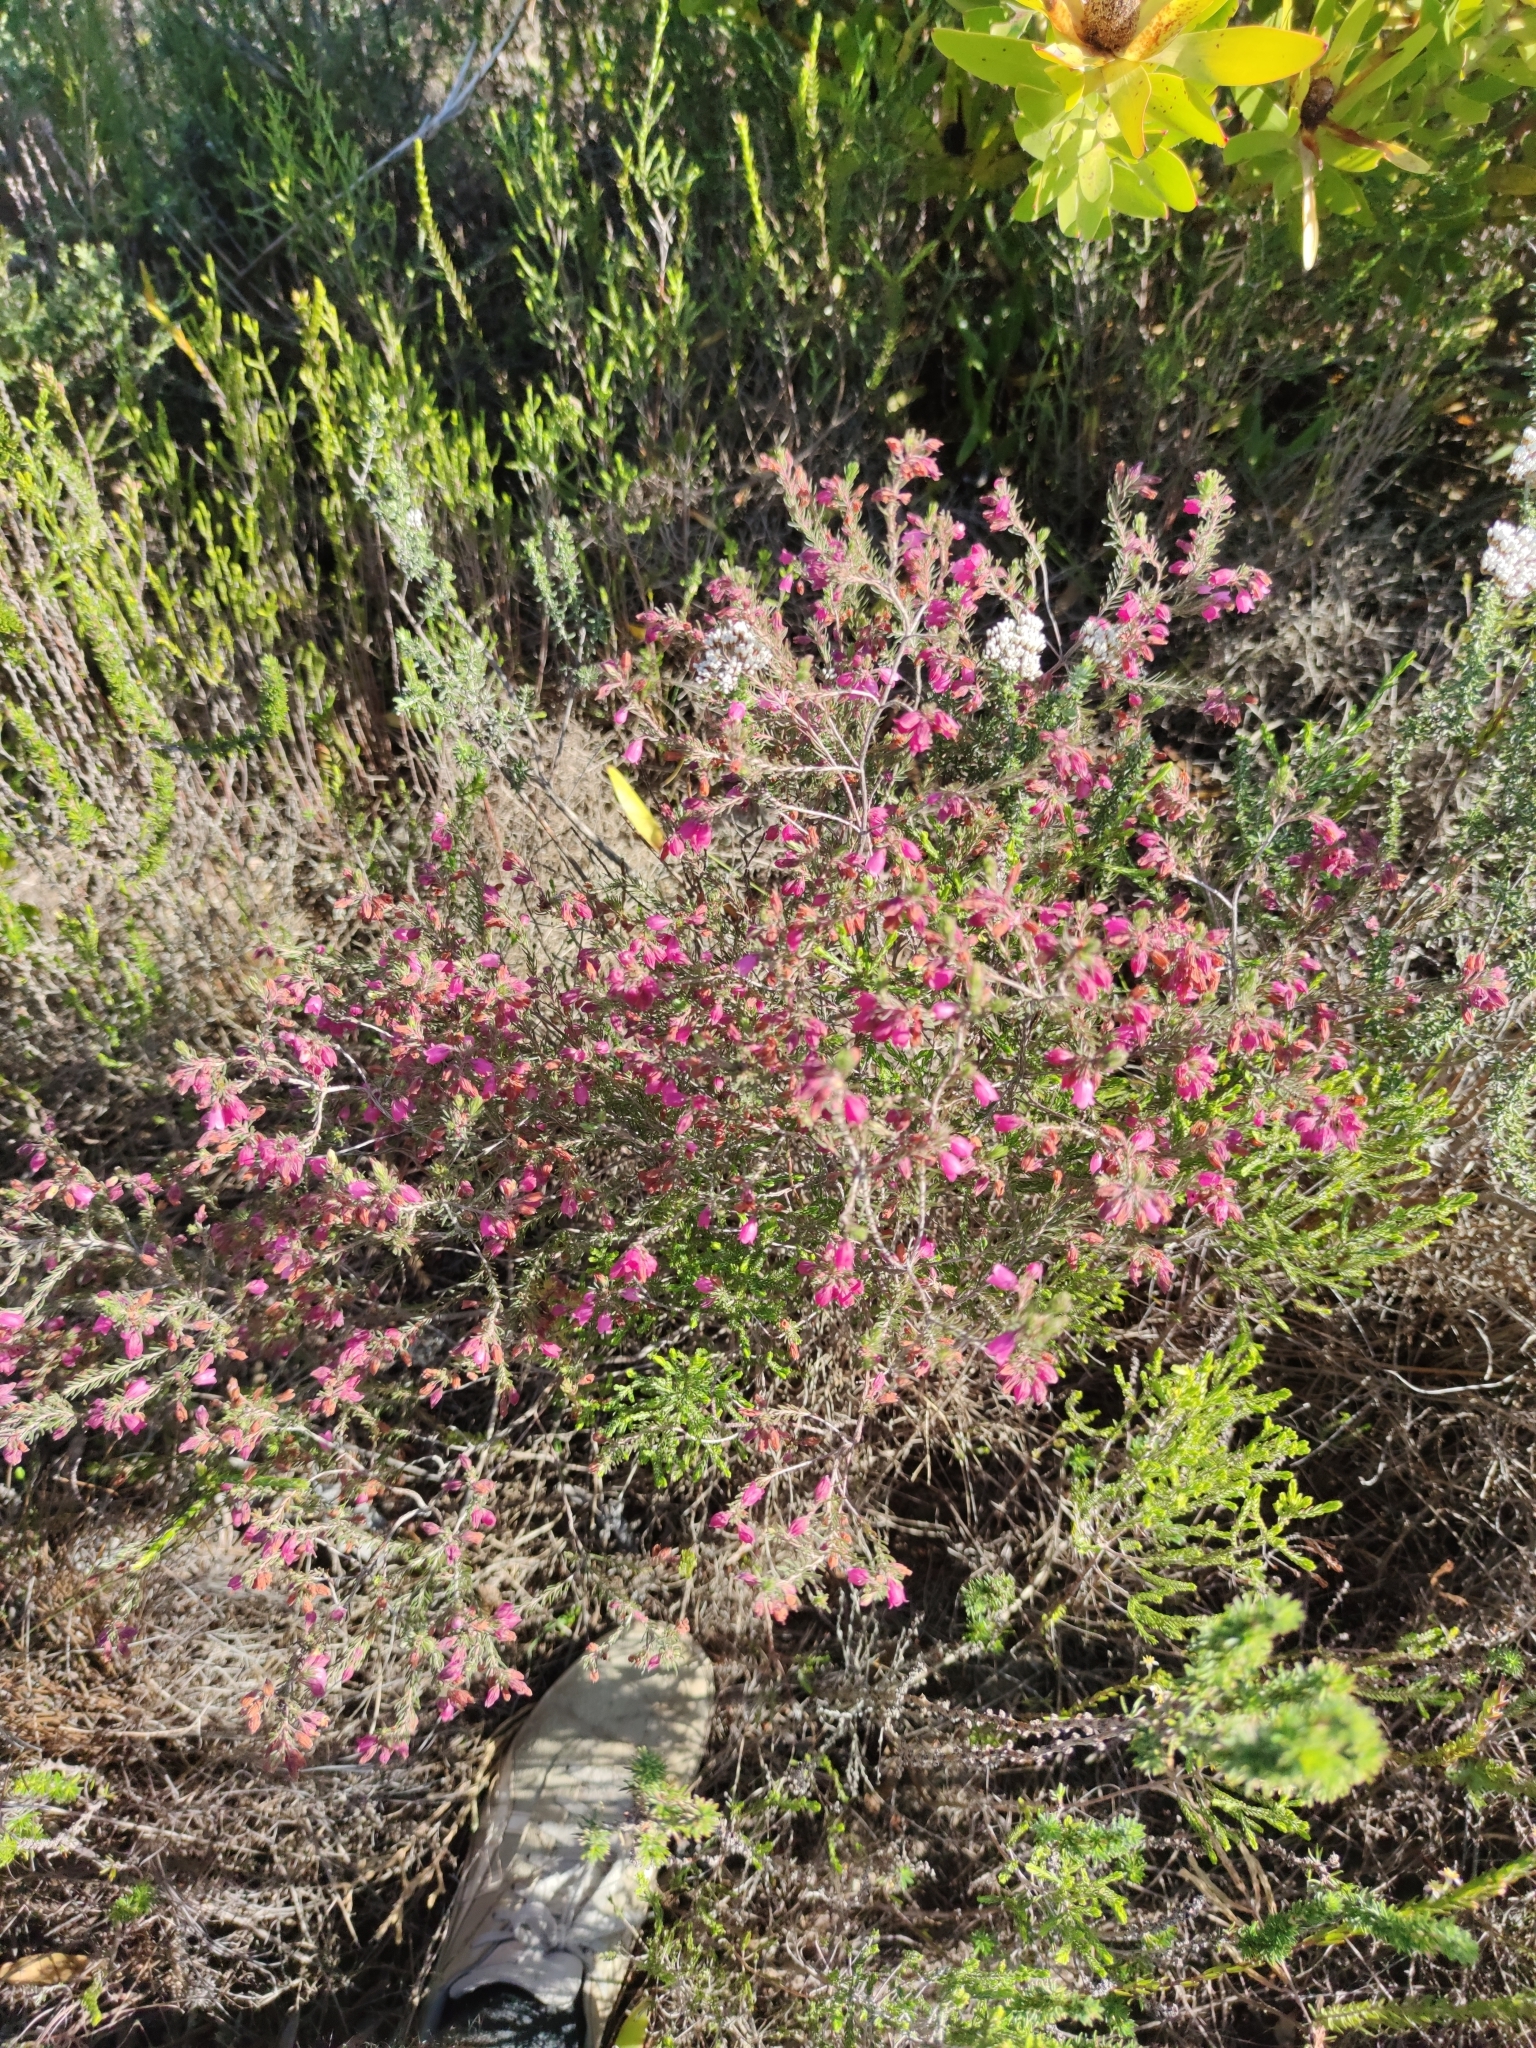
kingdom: Plantae
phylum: Tracheophyta
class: Magnoliopsida
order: Ericales
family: Ericaceae
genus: Erica
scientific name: Erica viscaria
